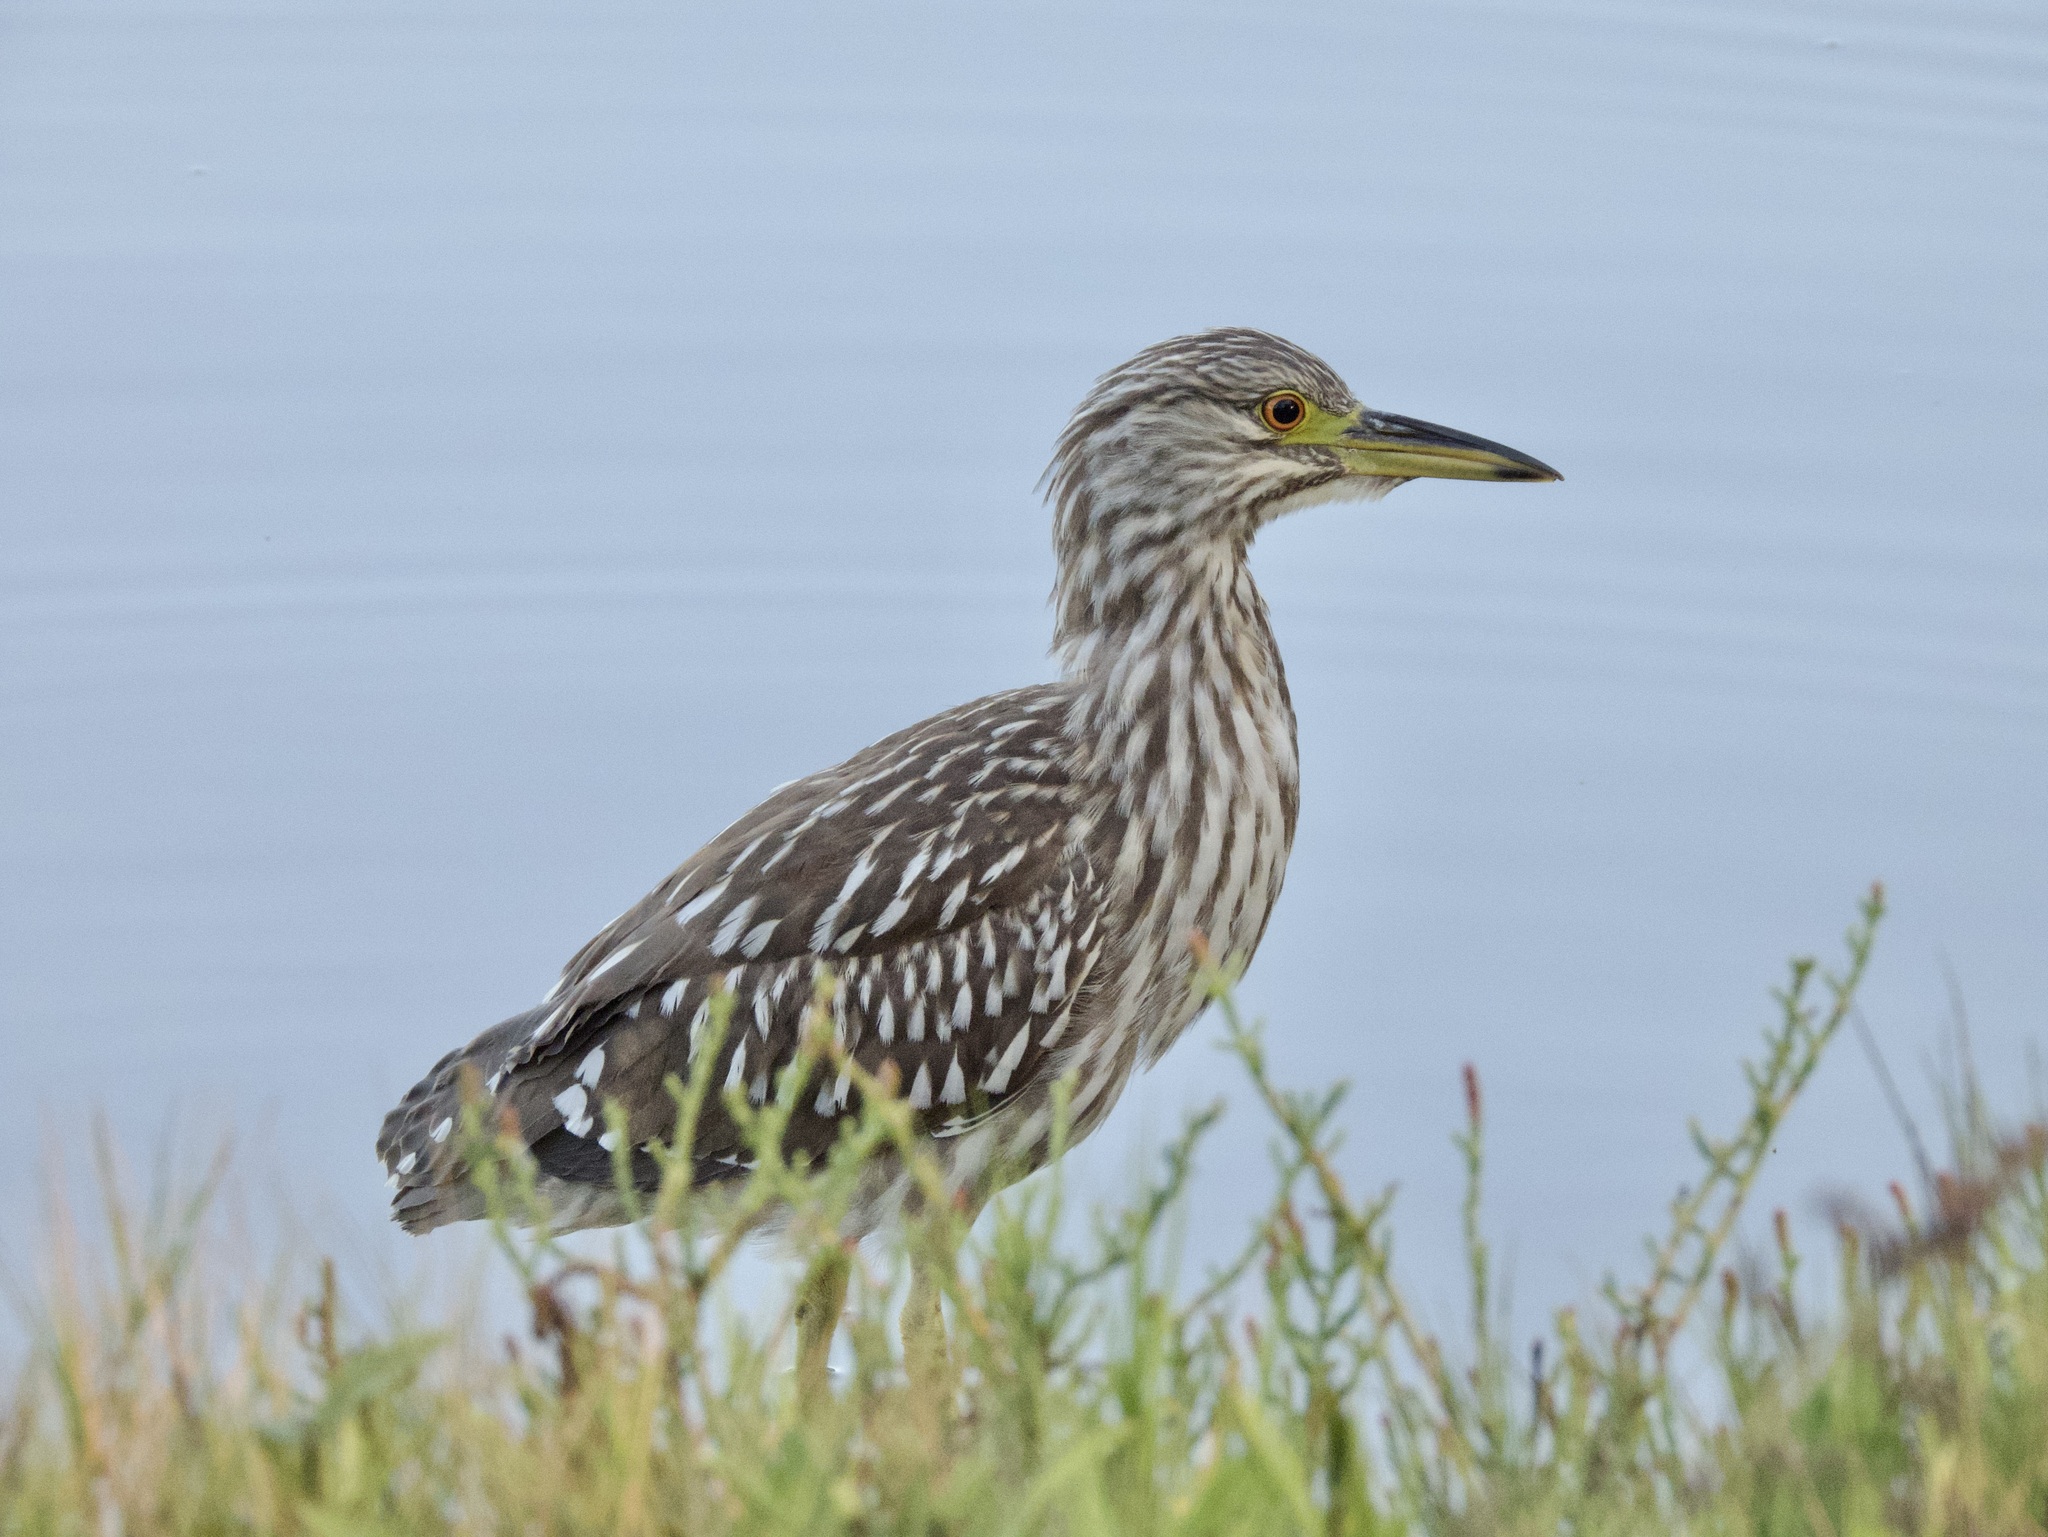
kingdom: Animalia
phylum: Chordata
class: Aves
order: Pelecaniformes
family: Ardeidae
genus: Nycticorax
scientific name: Nycticorax nycticorax
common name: Black-crowned night heron
